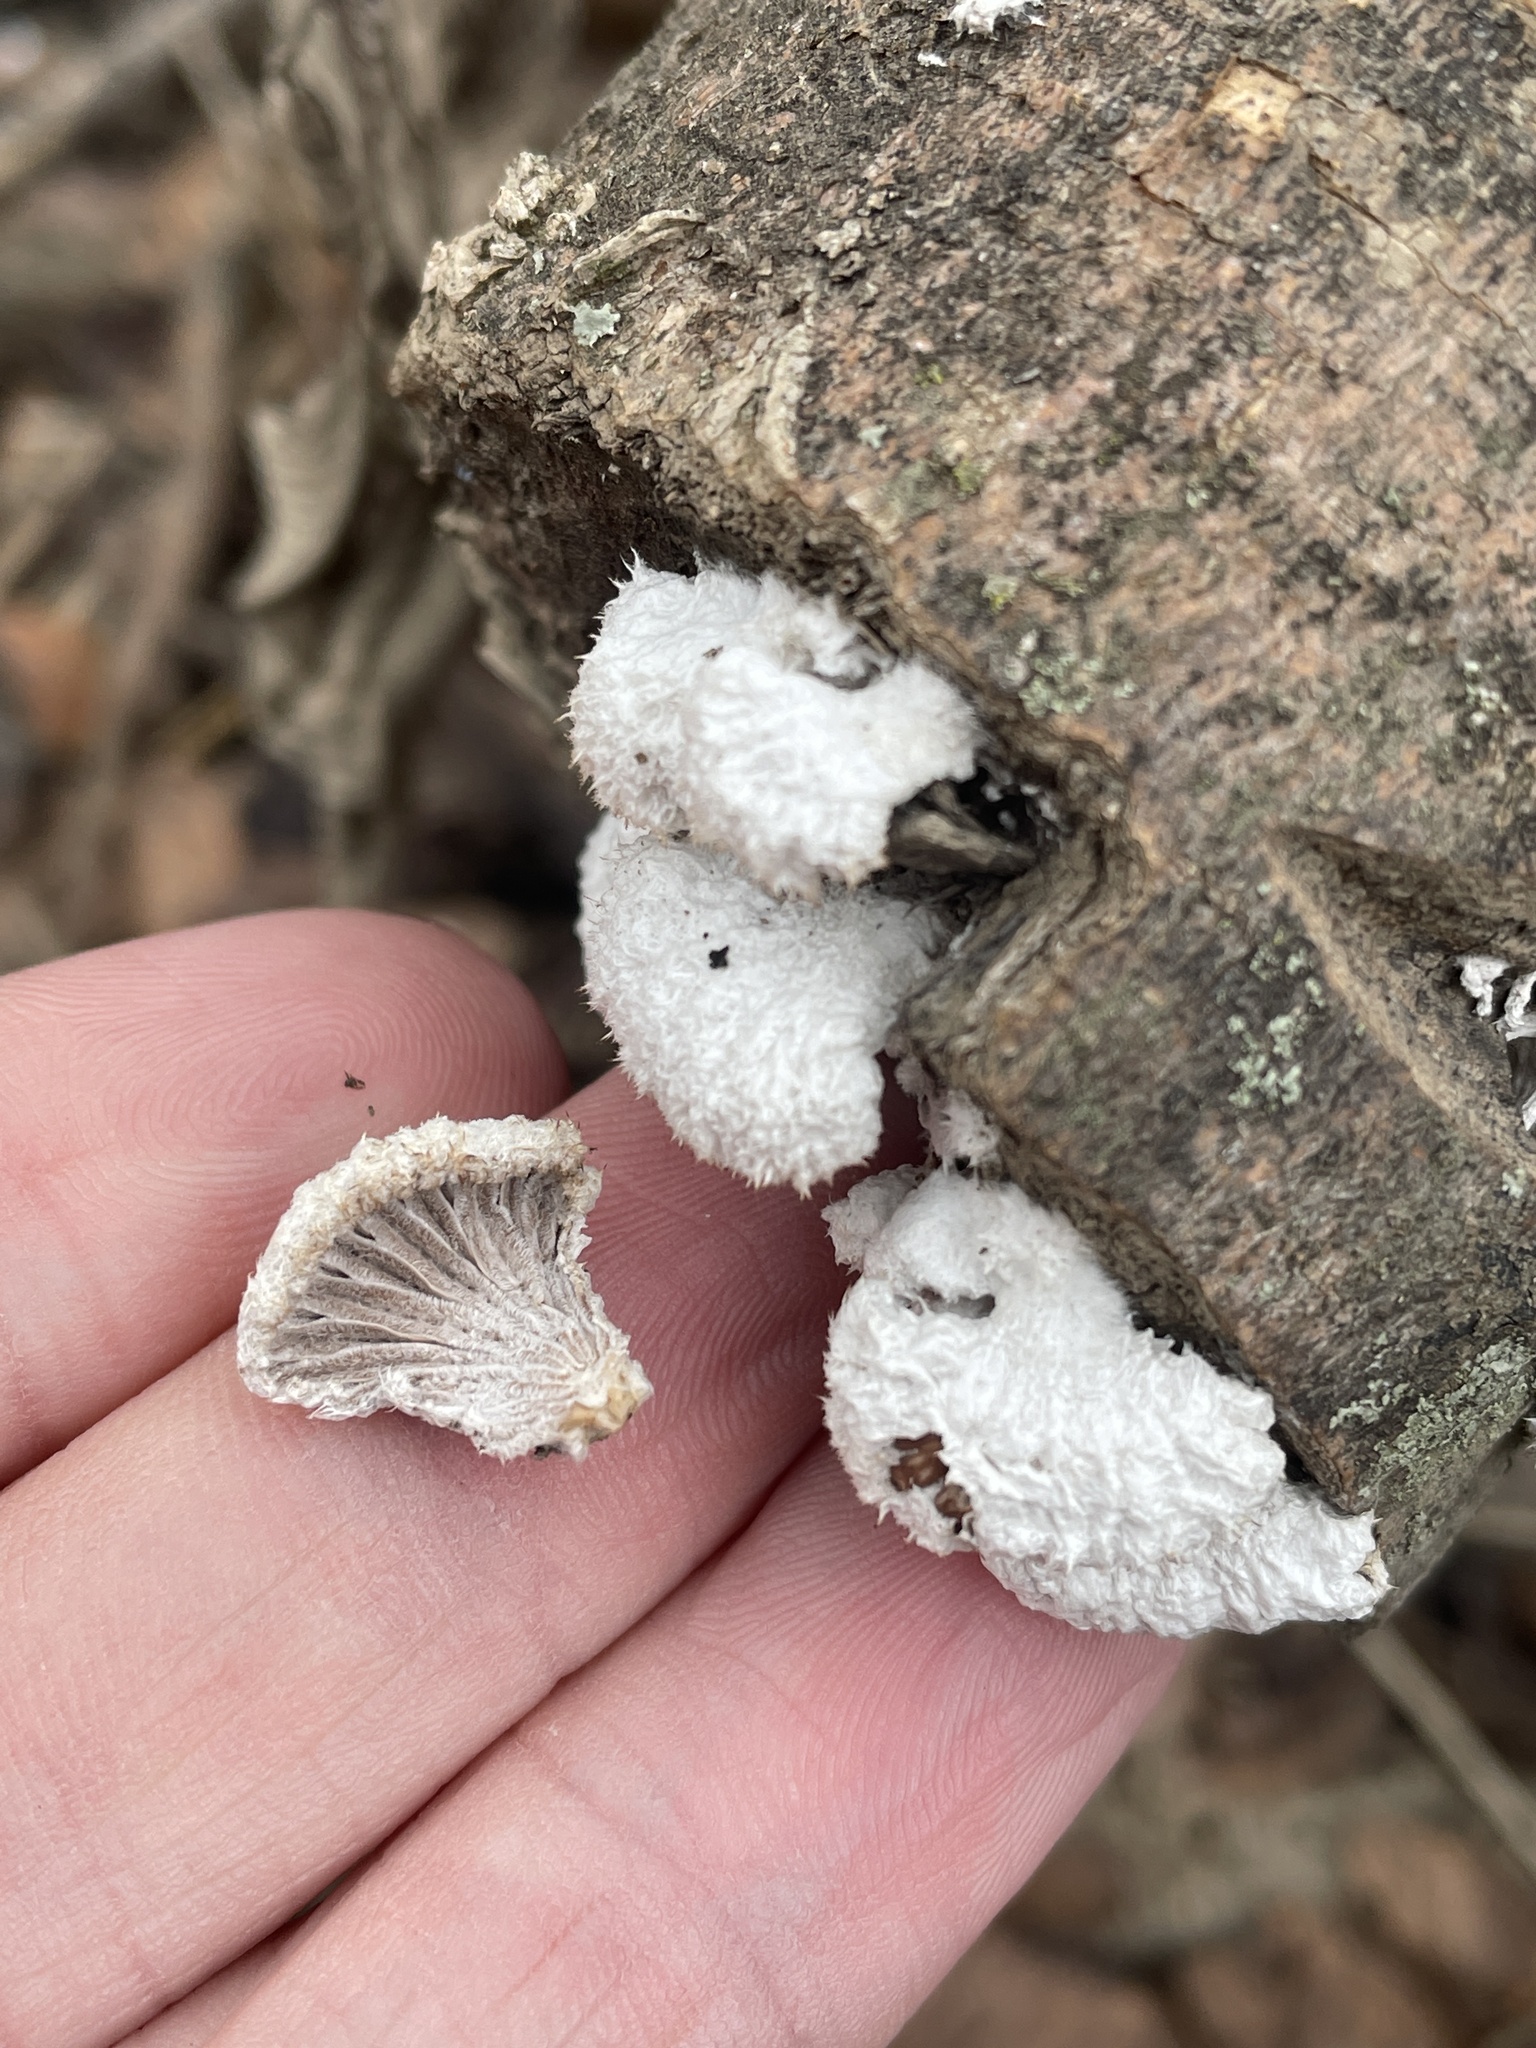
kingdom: Fungi
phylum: Basidiomycota
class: Agaricomycetes
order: Agaricales
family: Schizophyllaceae
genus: Schizophyllum
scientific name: Schizophyllum commune
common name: Common porecrust
